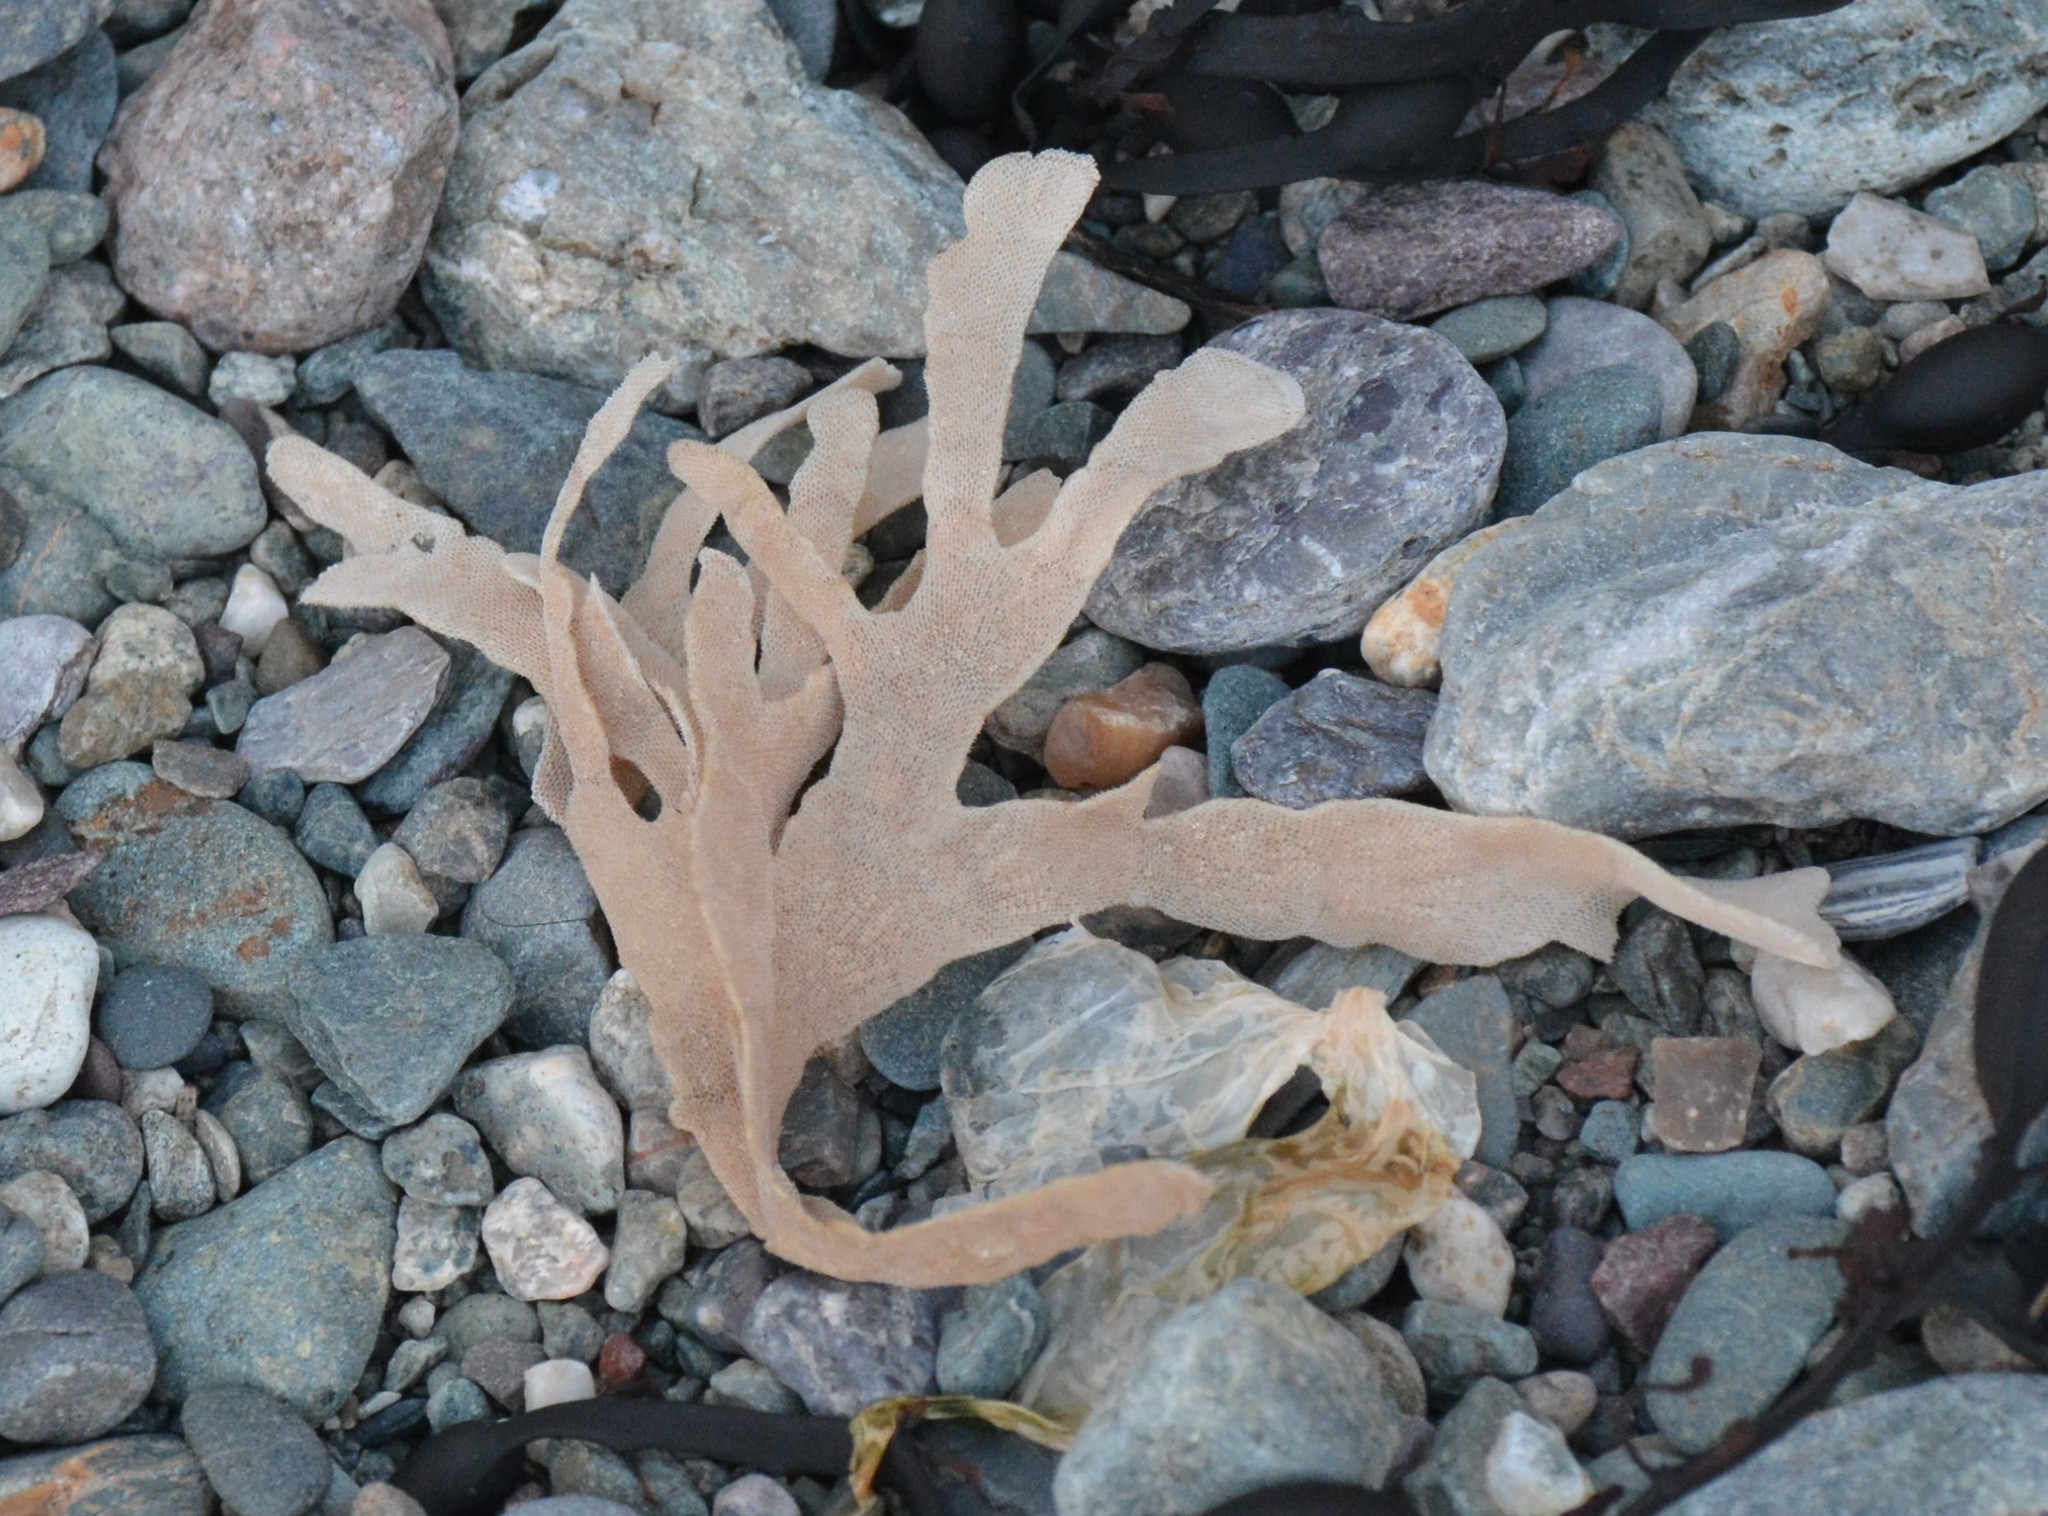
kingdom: Animalia
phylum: Bryozoa
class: Gymnolaemata
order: Cheilostomatida
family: Flustridae
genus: Flustra
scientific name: Flustra foliacea
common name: Hornwrack
